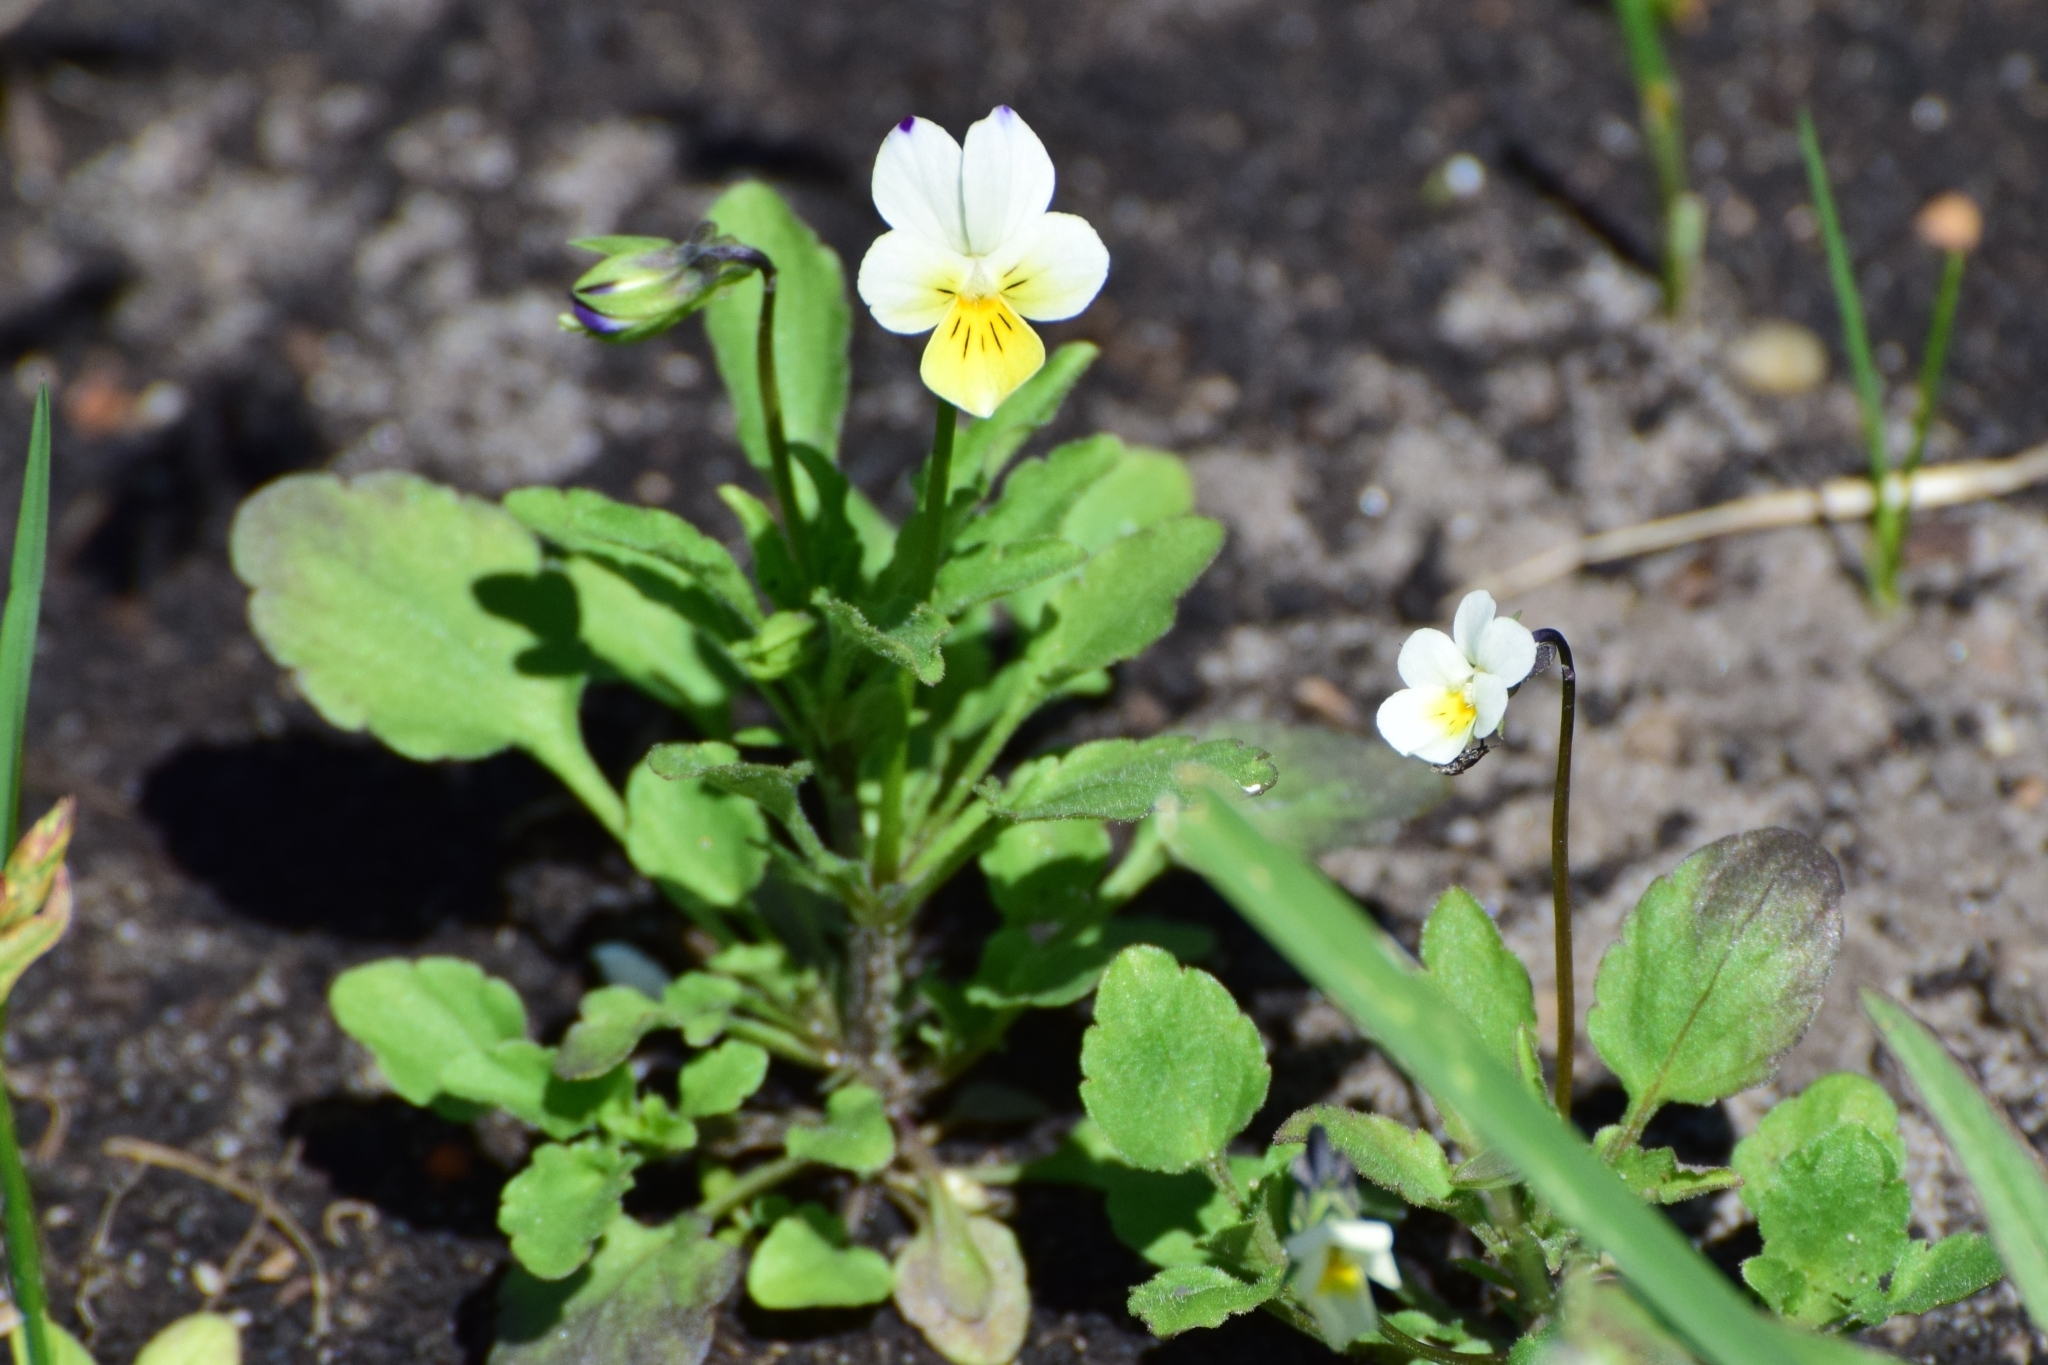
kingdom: Plantae
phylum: Tracheophyta
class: Magnoliopsida
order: Malpighiales
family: Violaceae
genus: Viola
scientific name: Viola arvensis
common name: Field pansy
